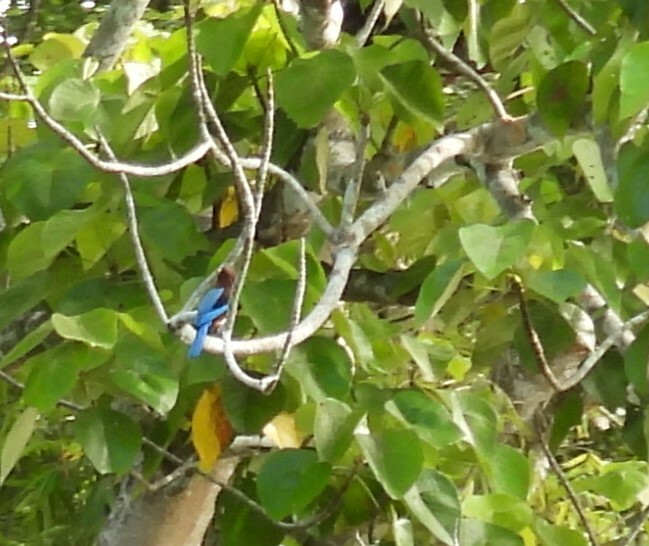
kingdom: Animalia
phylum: Chordata
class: Aves
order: Coraciiformes
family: Alcedinidae
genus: Halcyon
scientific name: Halcyon smyrnensis
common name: White-throated kingfisher
